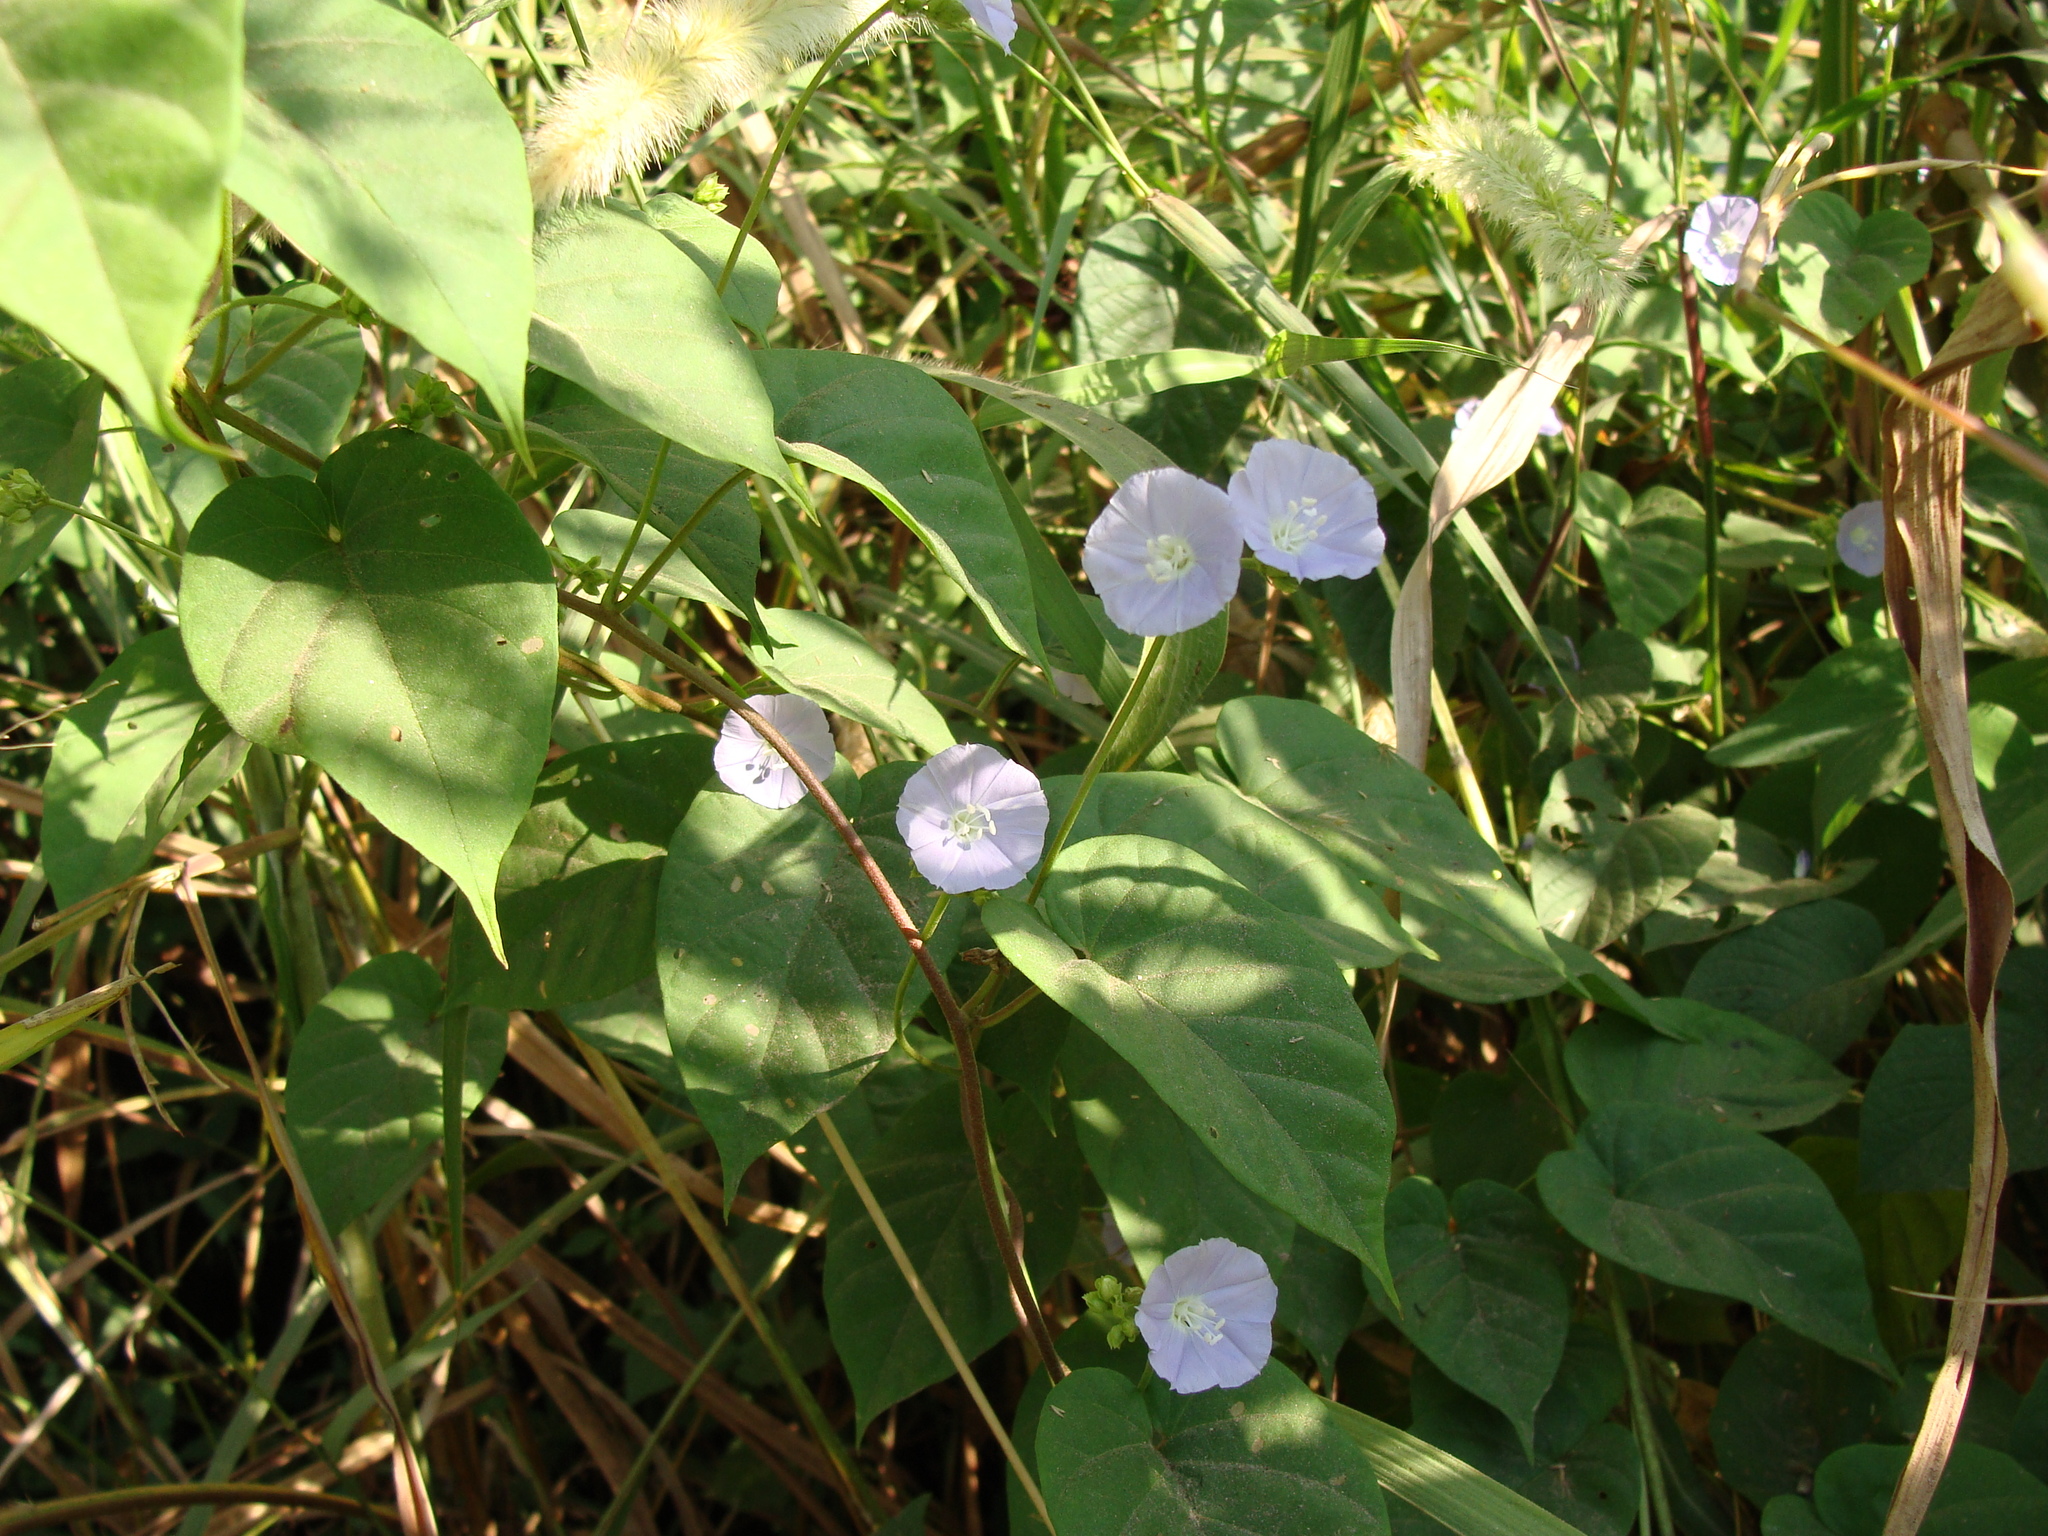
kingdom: Plantae
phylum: Tracheophyta
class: Magnoliopsida
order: Solanales
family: Convolvulaceae
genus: Jacquemontia
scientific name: Jacquemontia oaxacana
